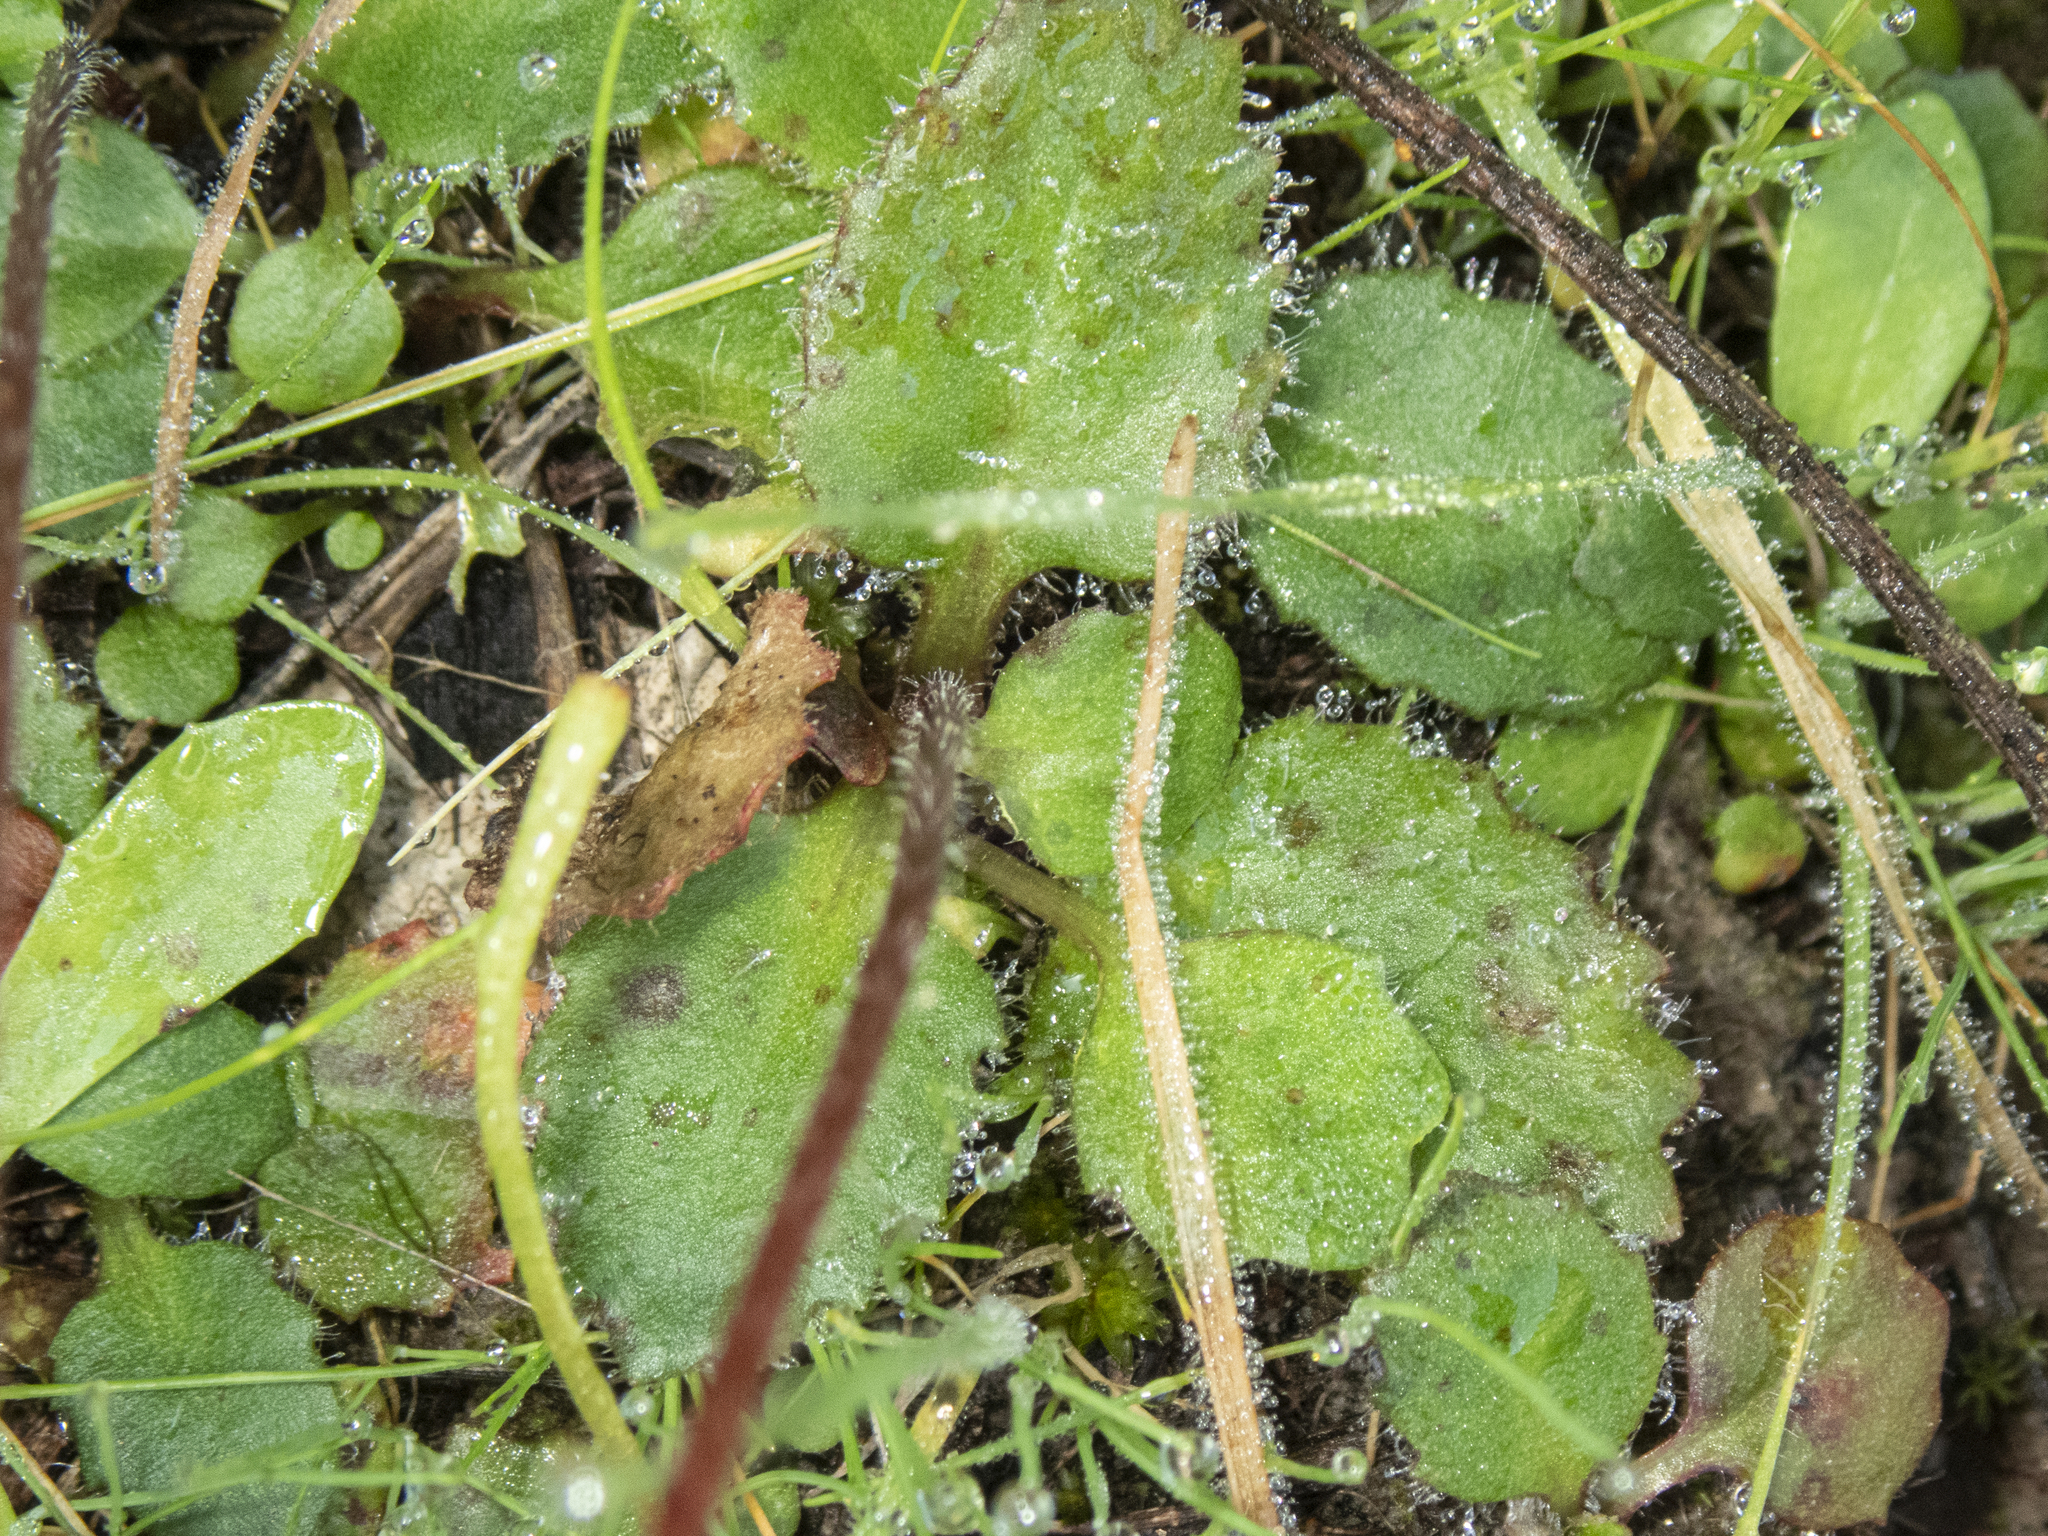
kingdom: Plantae
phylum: Tracheophyta
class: Magnoliopsida
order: Saxifragales
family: Saxifragaceae
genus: Micranthes
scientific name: Micranthes californica
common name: California saxifrage
